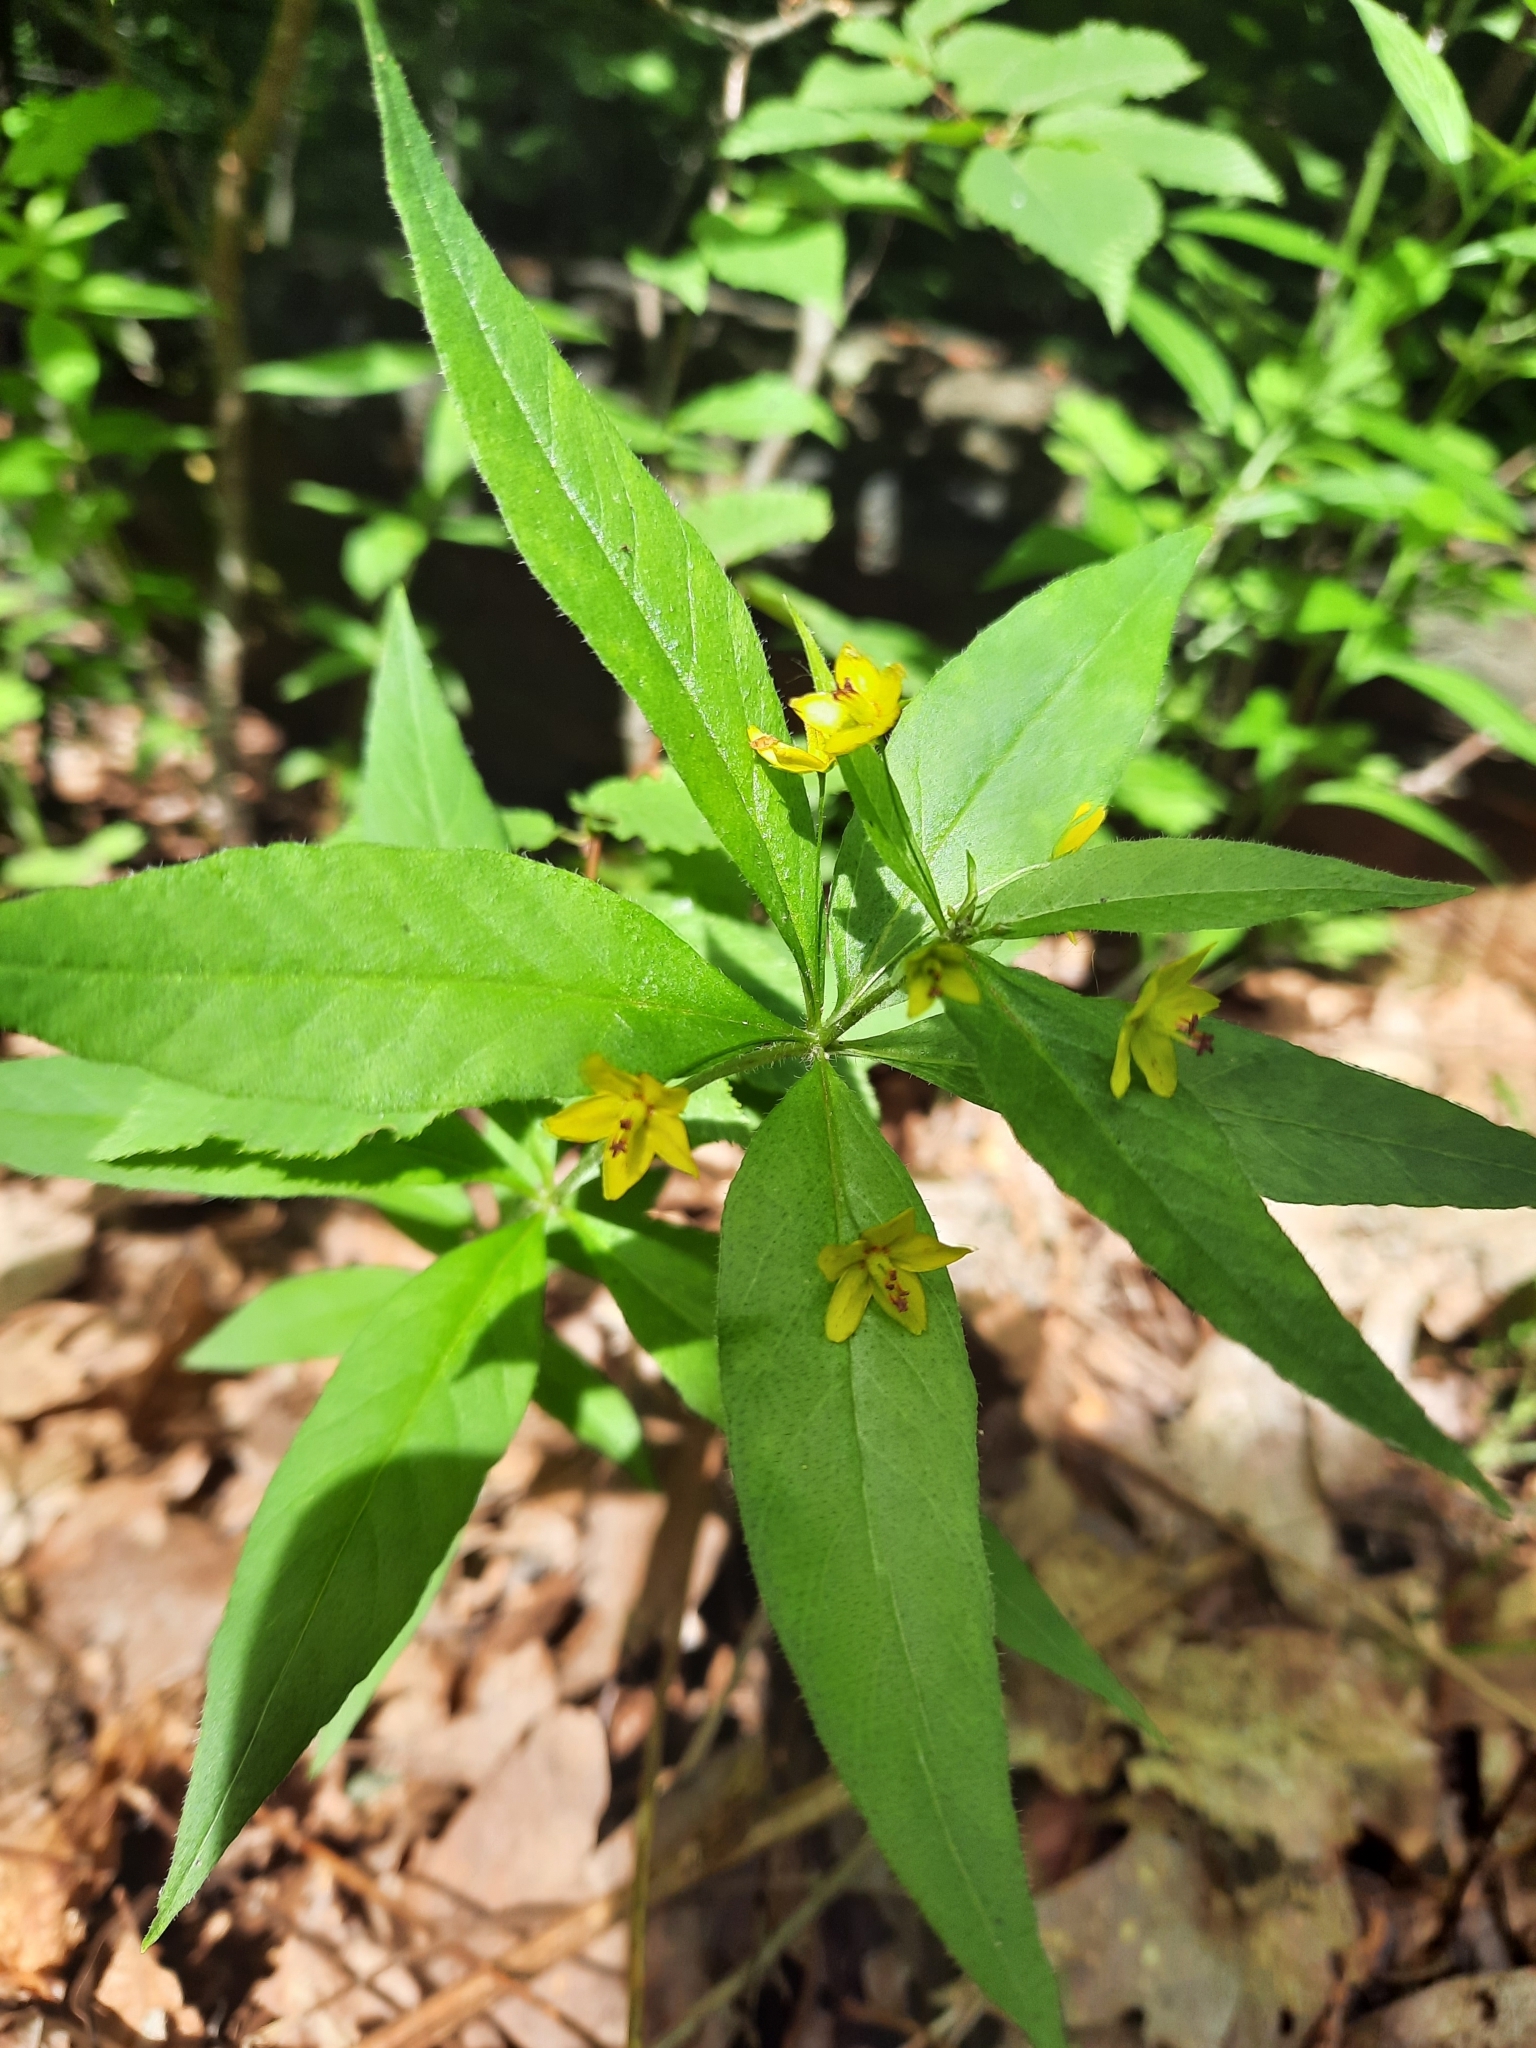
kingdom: Plantae
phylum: Tracheophyta
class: Magnoliopsida
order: Ericales
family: Primulaceae
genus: Lysimachia
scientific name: Lysimachia quadrifolia
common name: Whorled loosestrife
